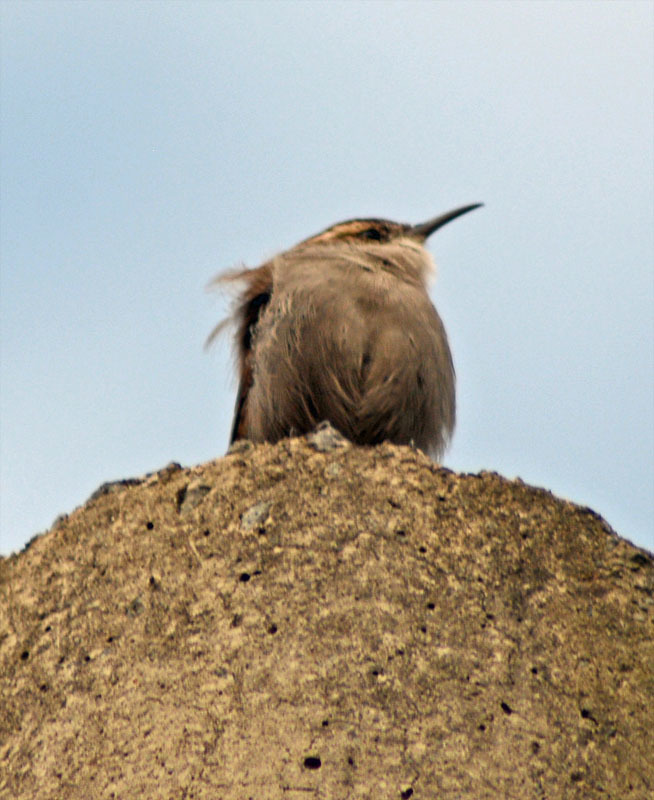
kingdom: Animalia
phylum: Chordata
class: Aves
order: Passeriformes
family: Troglodytidae
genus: Thryomanes
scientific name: Thryomanes bewickii
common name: Bewick's wren
